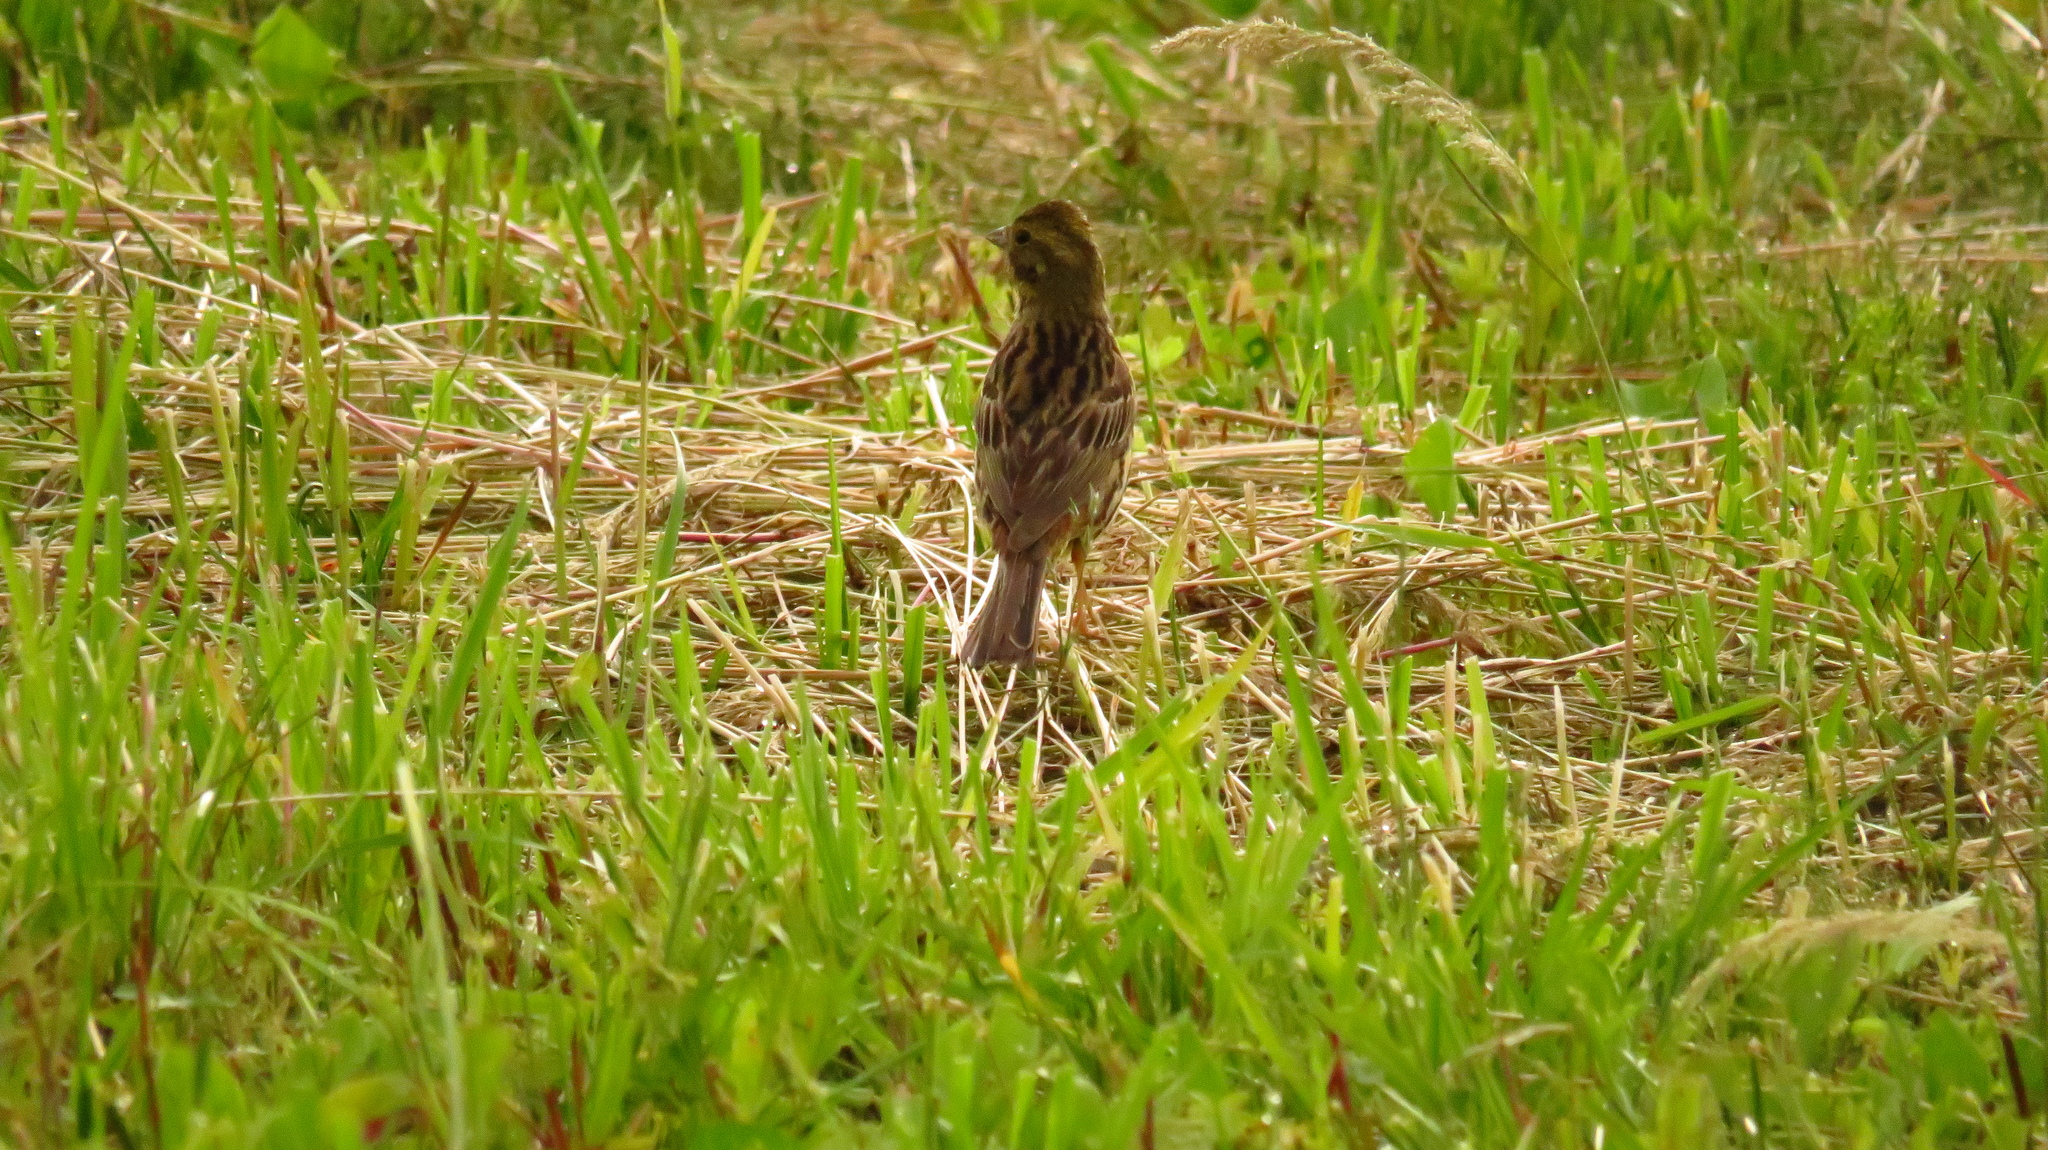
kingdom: Animalia
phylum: Chordata
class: Aves
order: Passeriformes
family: Emberizidae
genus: Emberiza
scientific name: Emberiza citrinella
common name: Yellowhammer
